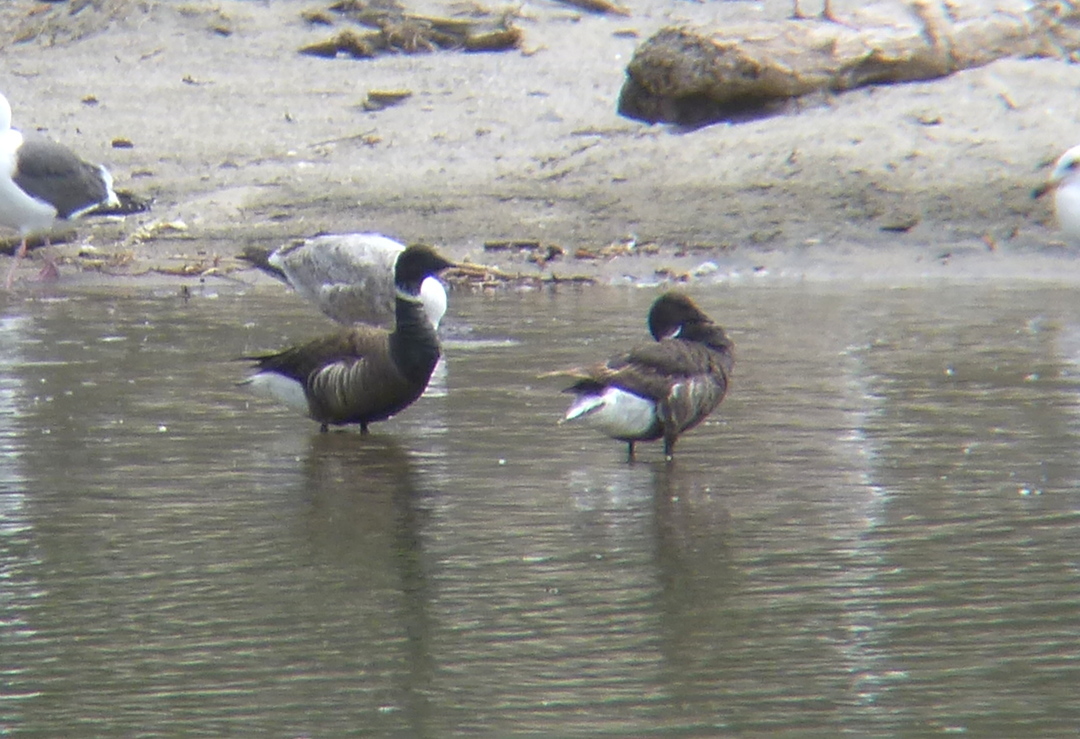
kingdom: Animalia
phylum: Chordata
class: Aves
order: Anseriformes
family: Anatidae
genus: Branta
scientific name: Branta bernicla
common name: Brant goose
